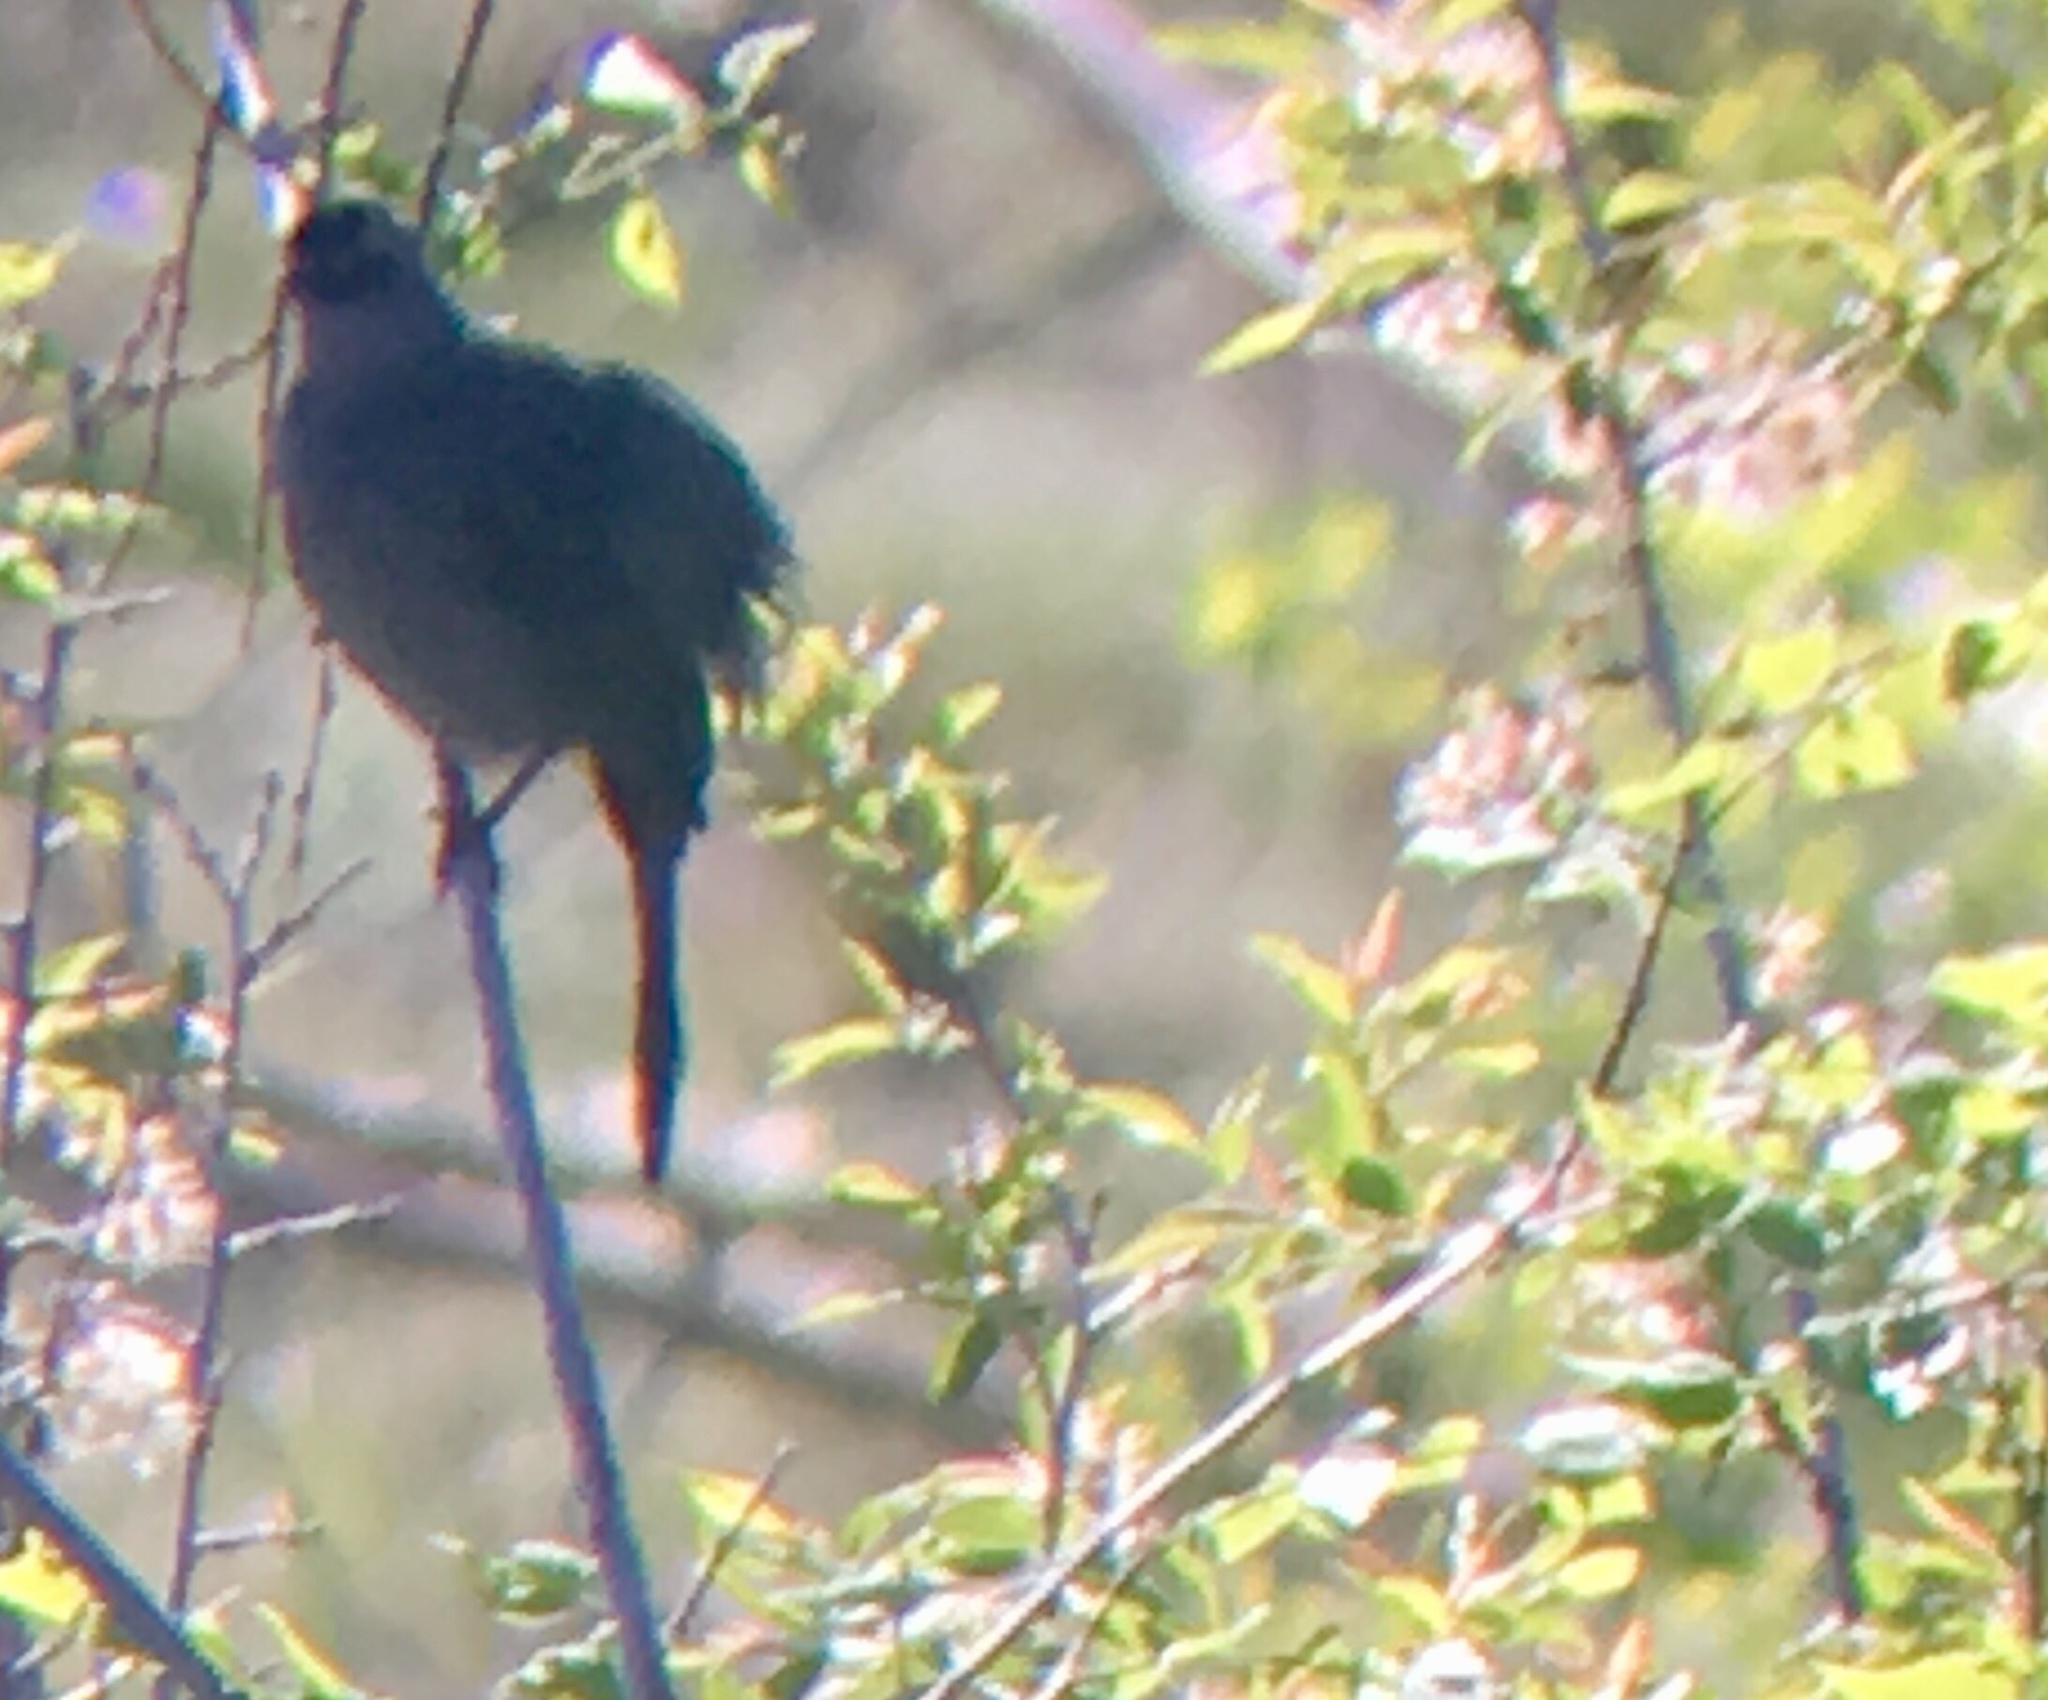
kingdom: Animalia
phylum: Chordata
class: Aves
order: Passeriformes
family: Mimidae
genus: Dumetella
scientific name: Dumetella carolinensis
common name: Gray catbird
